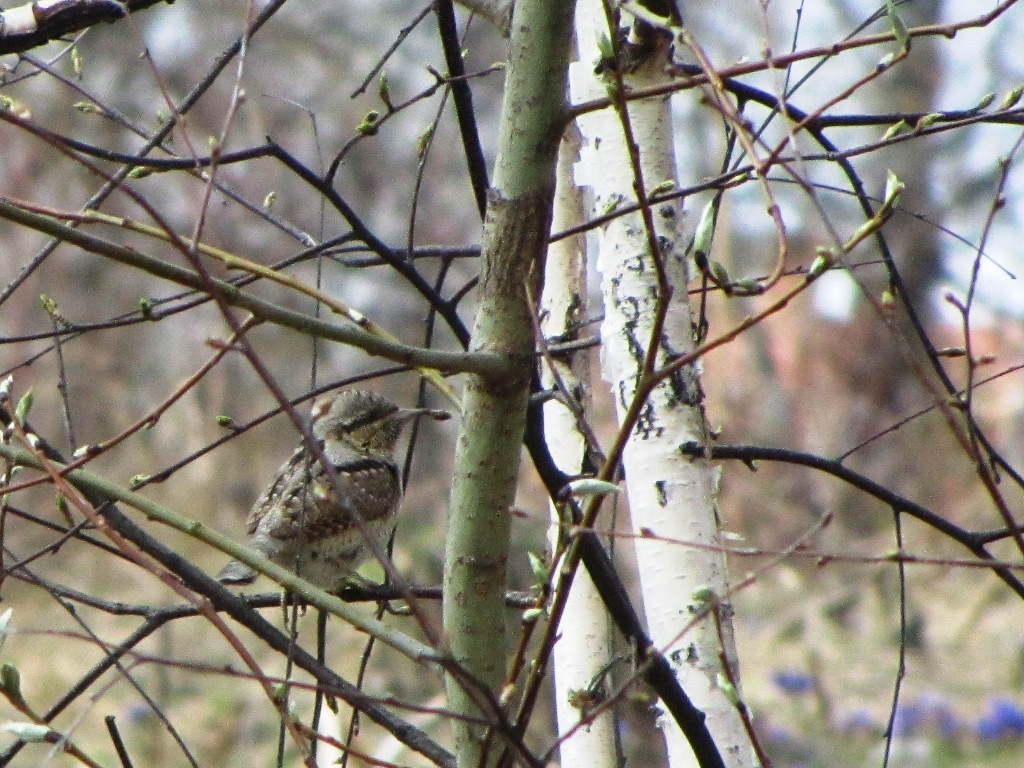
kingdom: Animalia
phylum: Chordata
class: Aves
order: Piciformes
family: Picidae
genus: Jynx
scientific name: Jynx torquilla
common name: Eurasian wryneck
